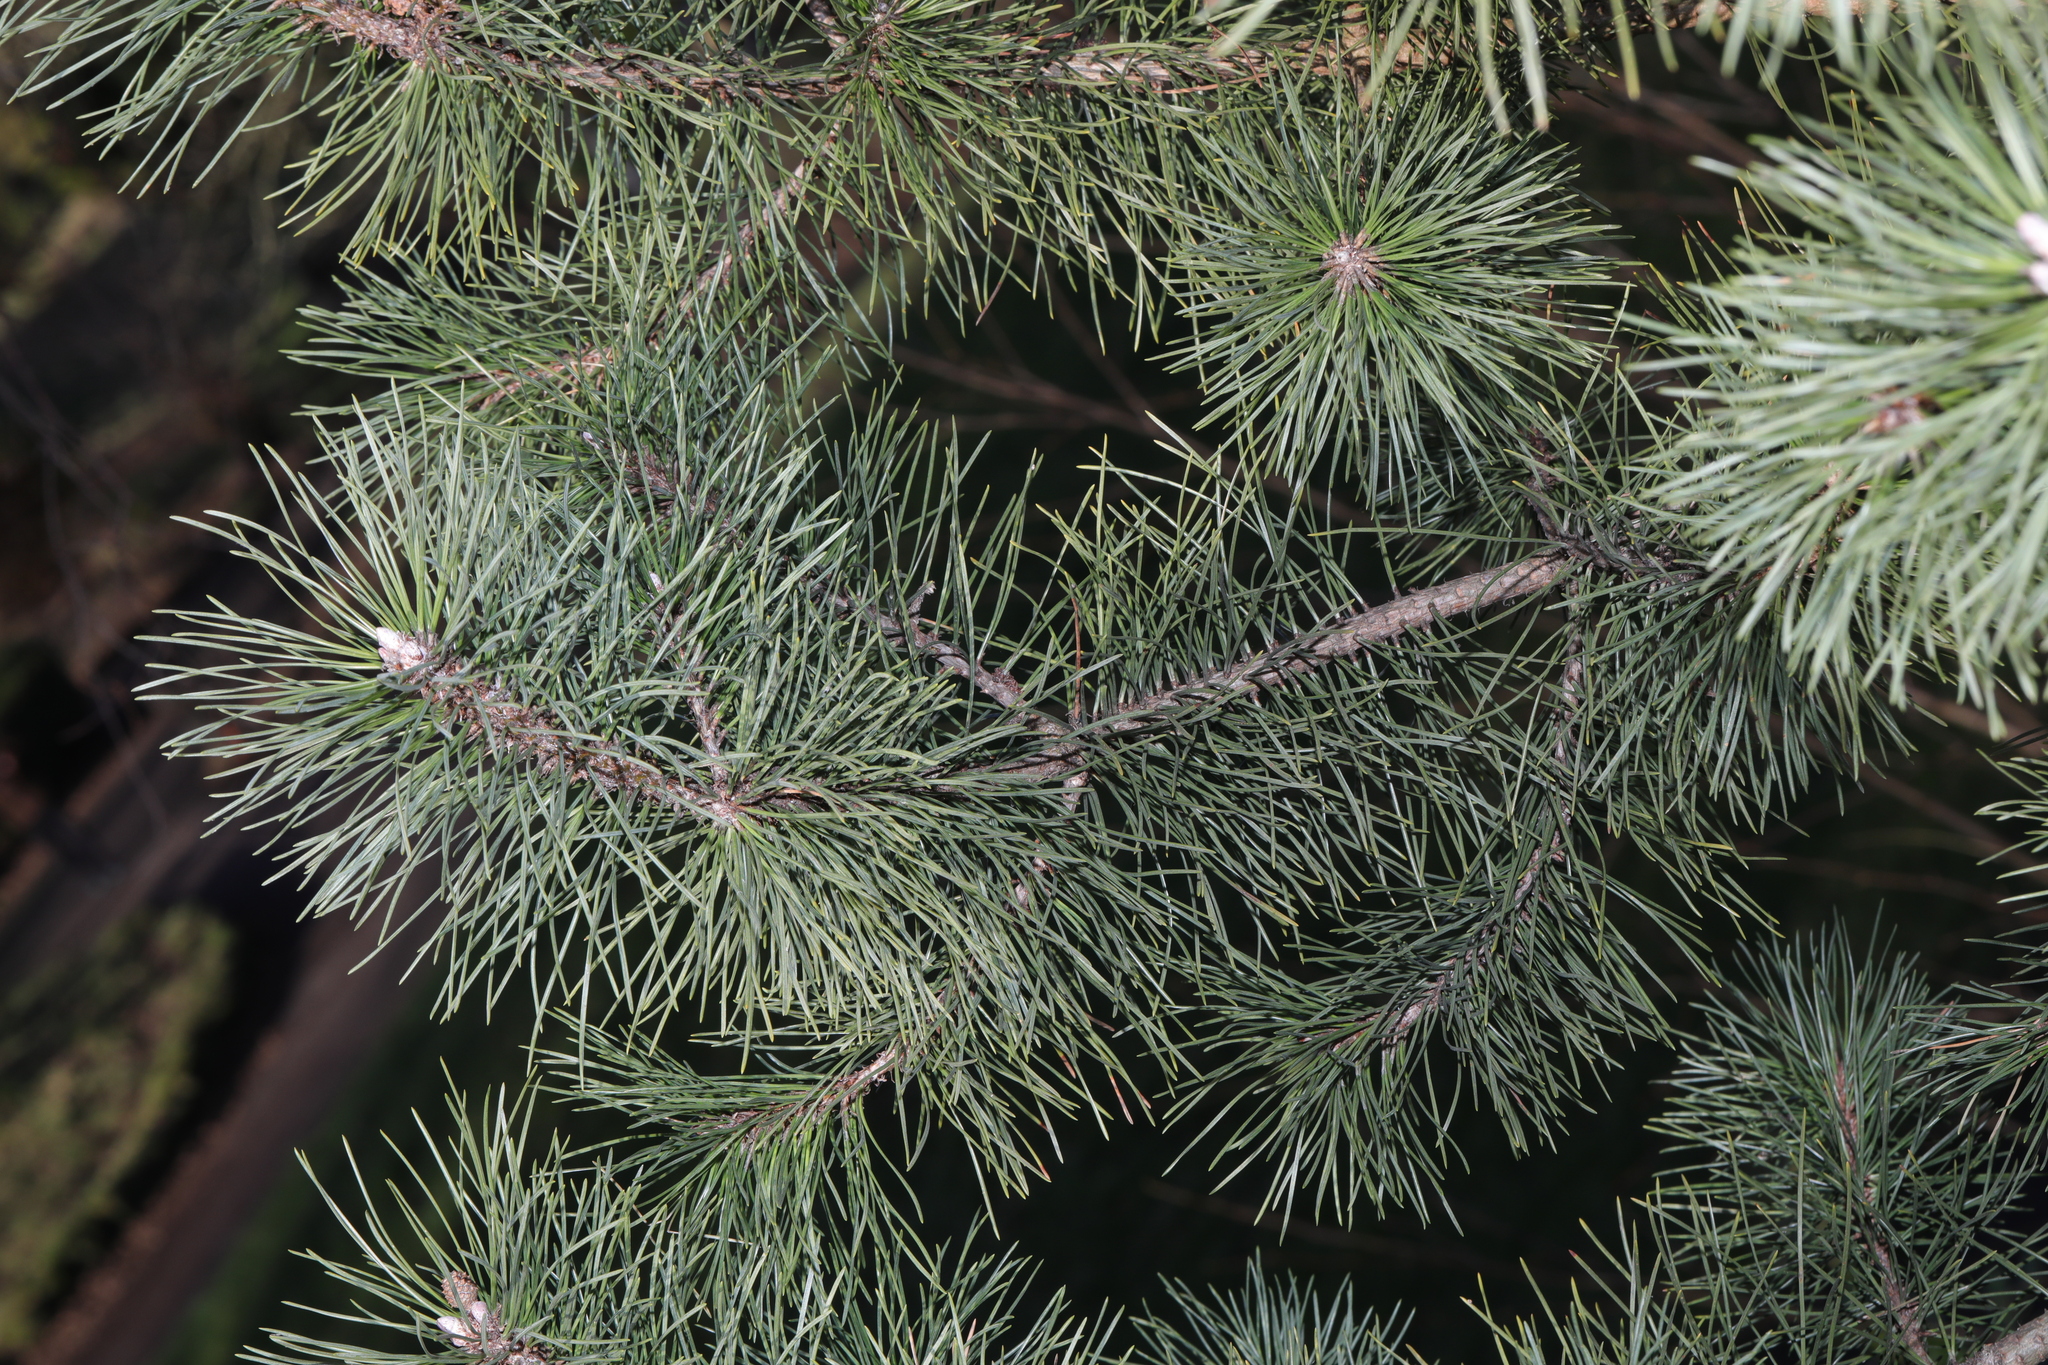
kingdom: Plantae
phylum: Tracheophyta
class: Pinopsida
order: Pinales
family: Pinaceae
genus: Pinus
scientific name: Pinus sylvestris
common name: Scots pine
